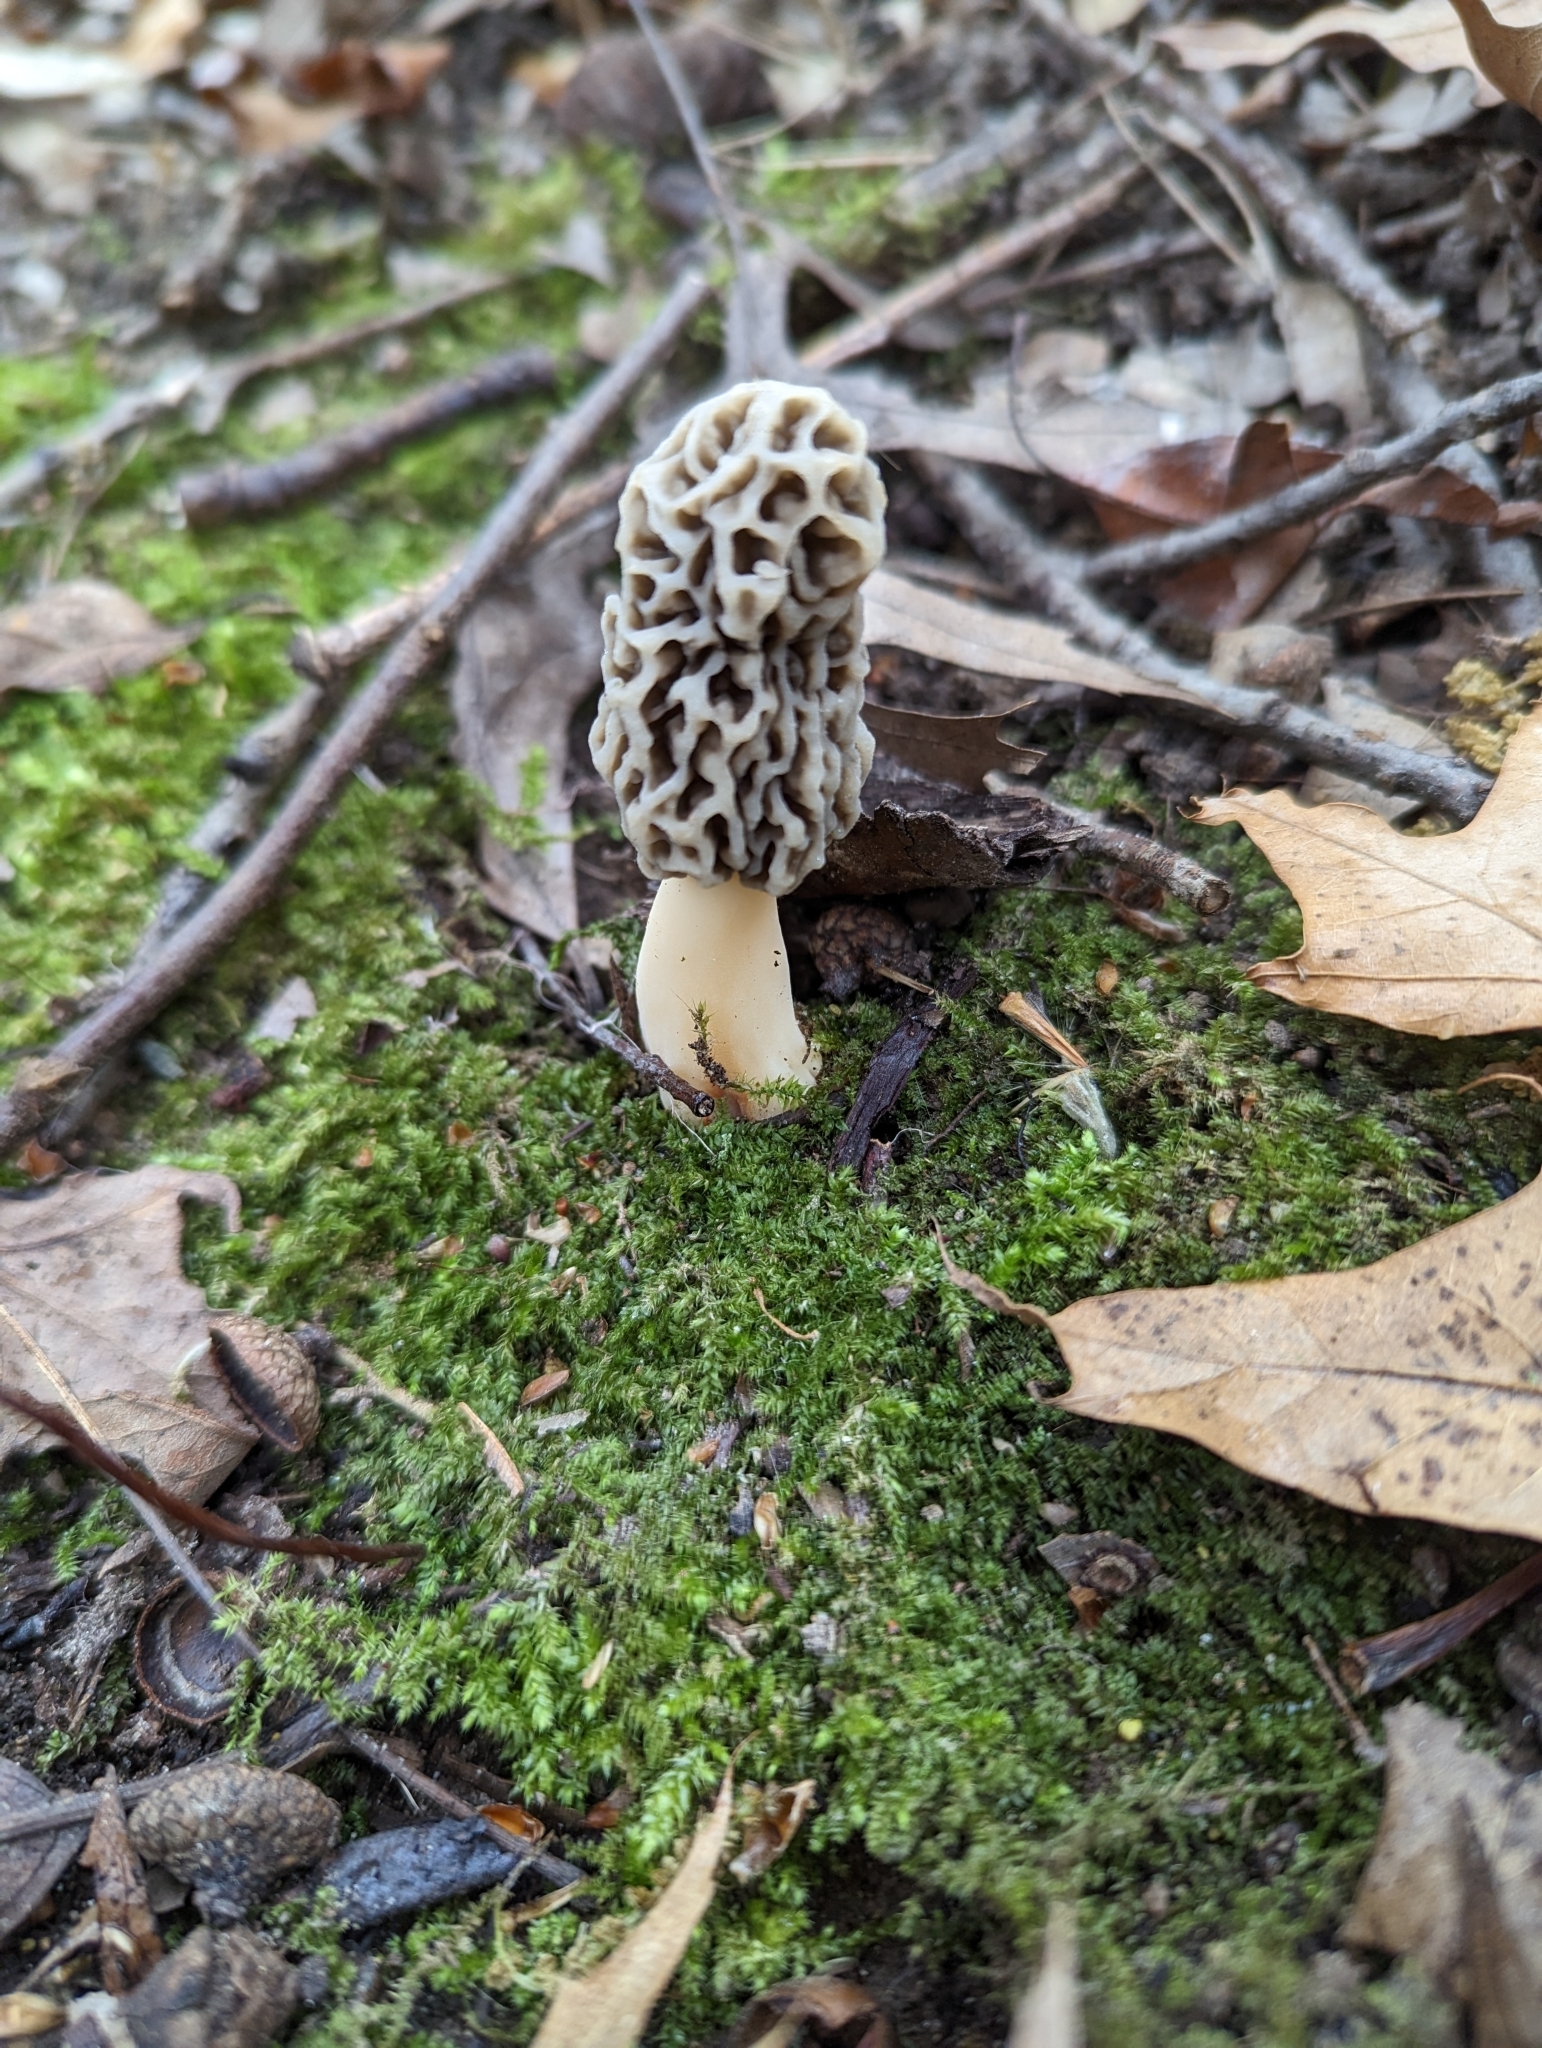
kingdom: Fungi
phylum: Ascomycota
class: Pezizomycetes
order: Pezizales
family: Morchellaceae
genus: Morchella
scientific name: Morchella americana
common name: White morel
